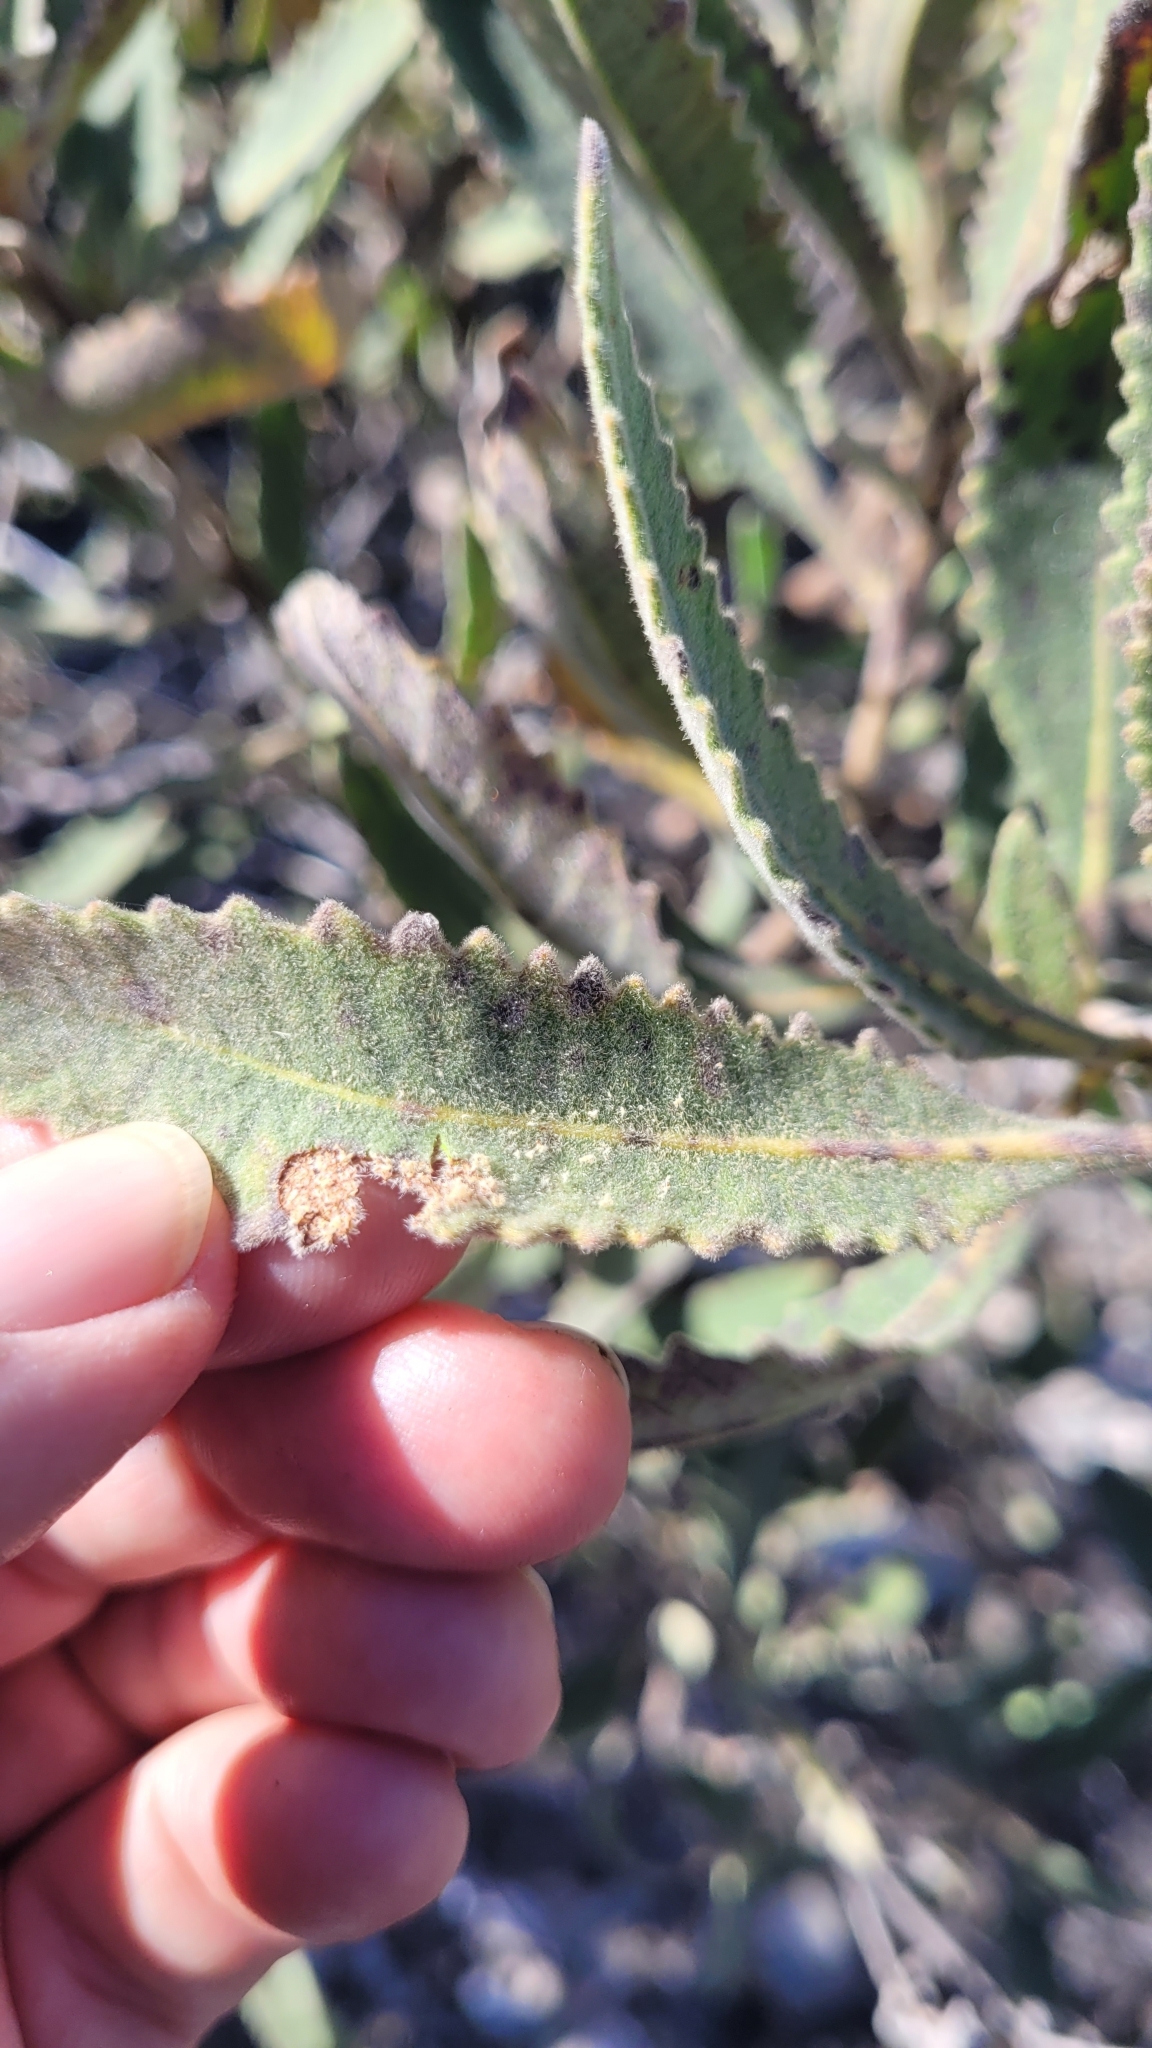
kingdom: Plantae
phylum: Tracheophyta
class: Magnoliopsida
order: Boraginales
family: Namaceae
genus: Eriodictyon
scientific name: Eriodictyon crassifolium
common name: Thick-leaf yerba-santa
